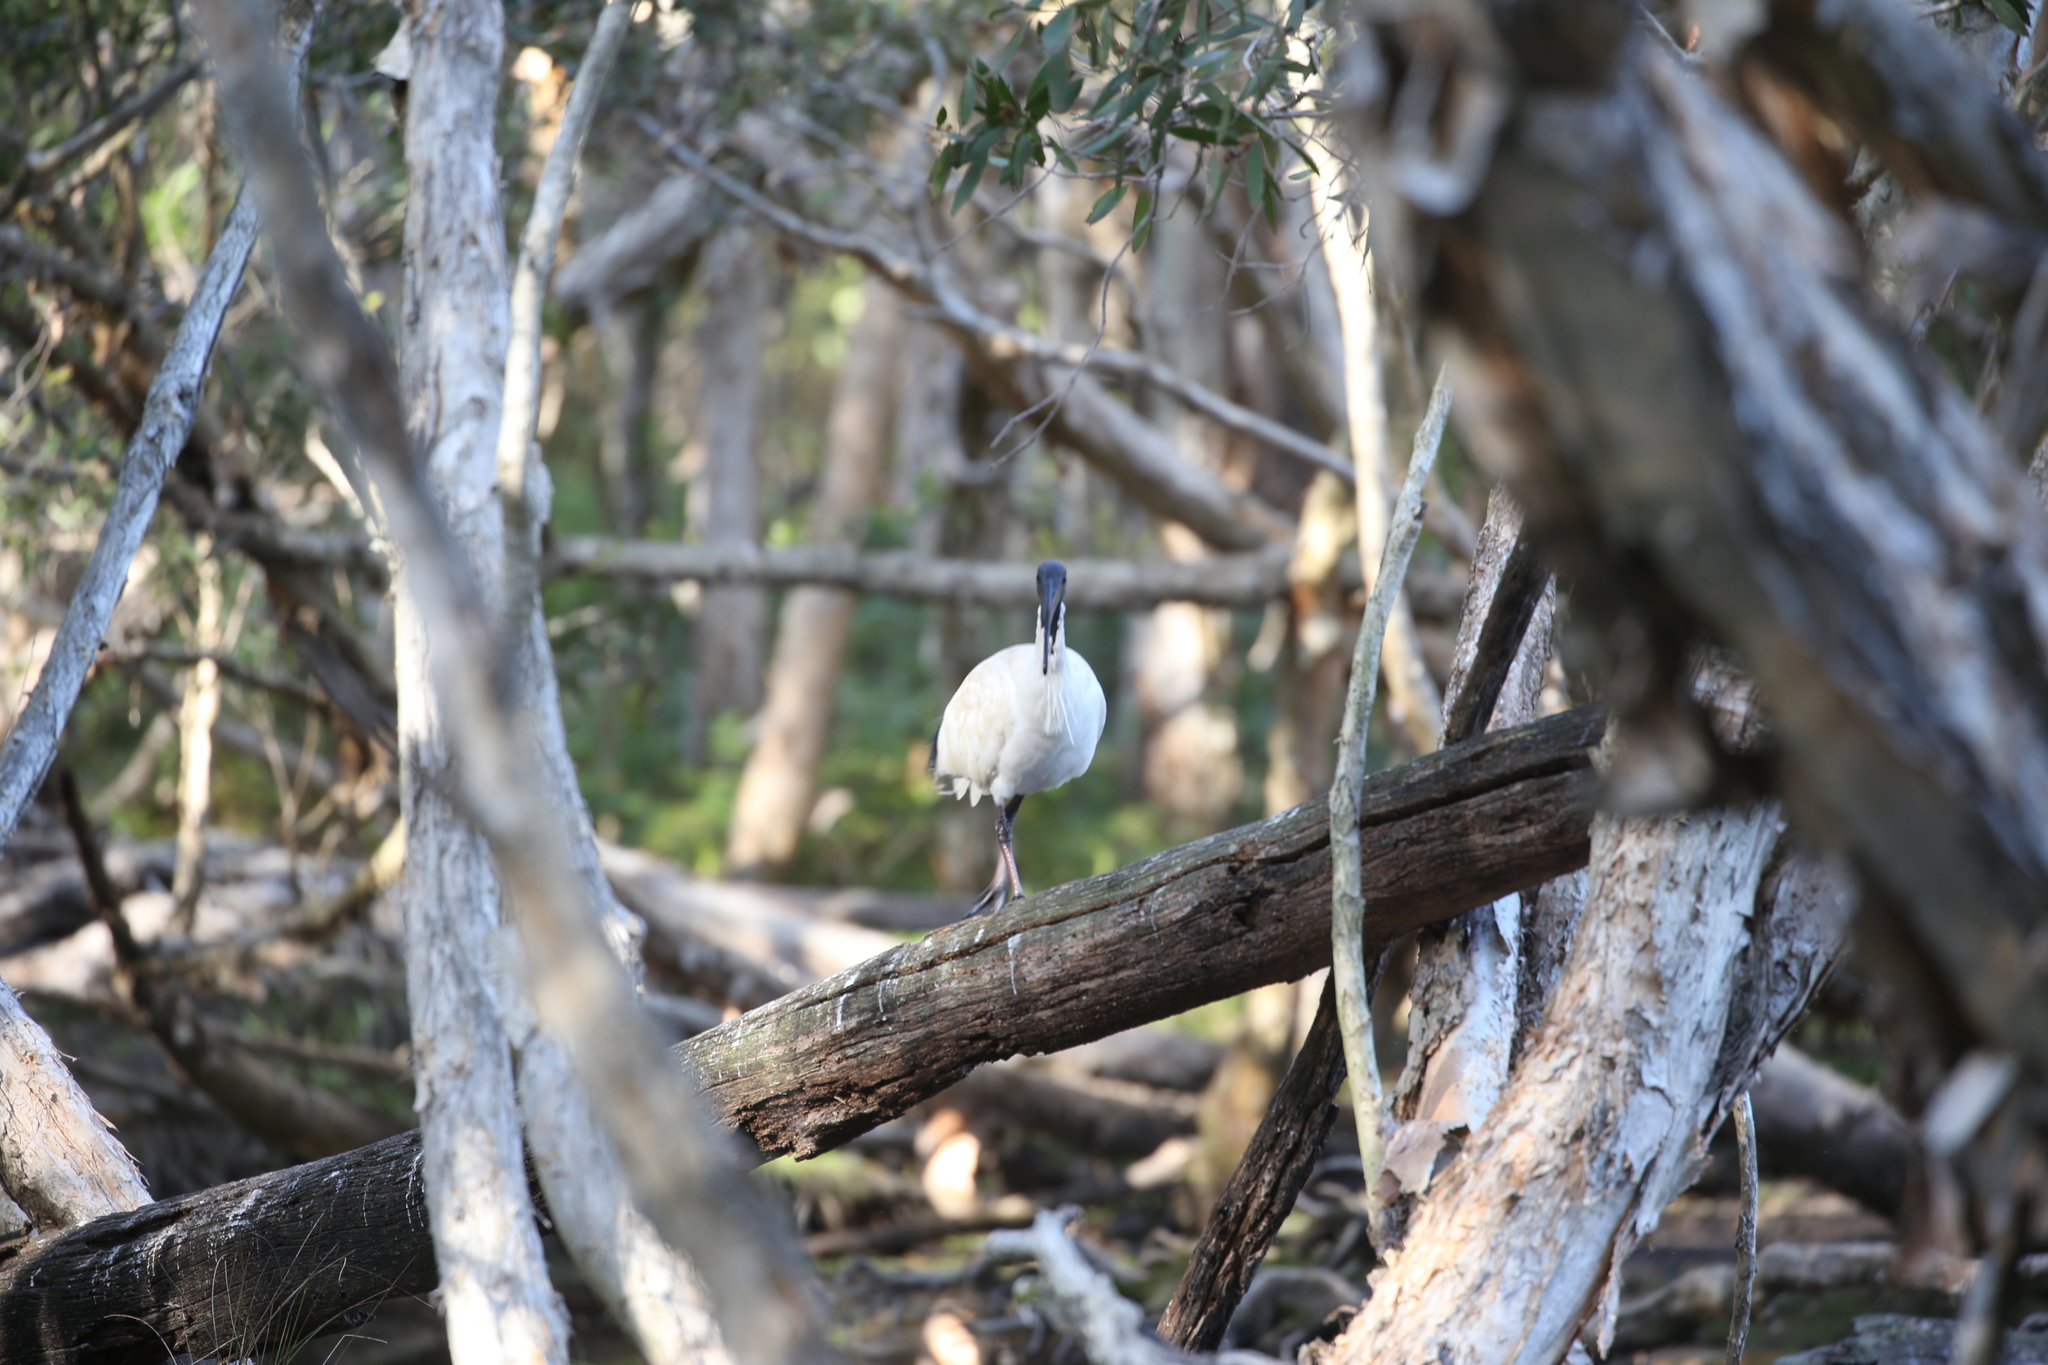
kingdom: Animalia
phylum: Chordata
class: Aves
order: Pelecaniformes
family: Threskiornithidae
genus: Threskiornis
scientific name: Threskiornis molucca
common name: Australian white ibis
